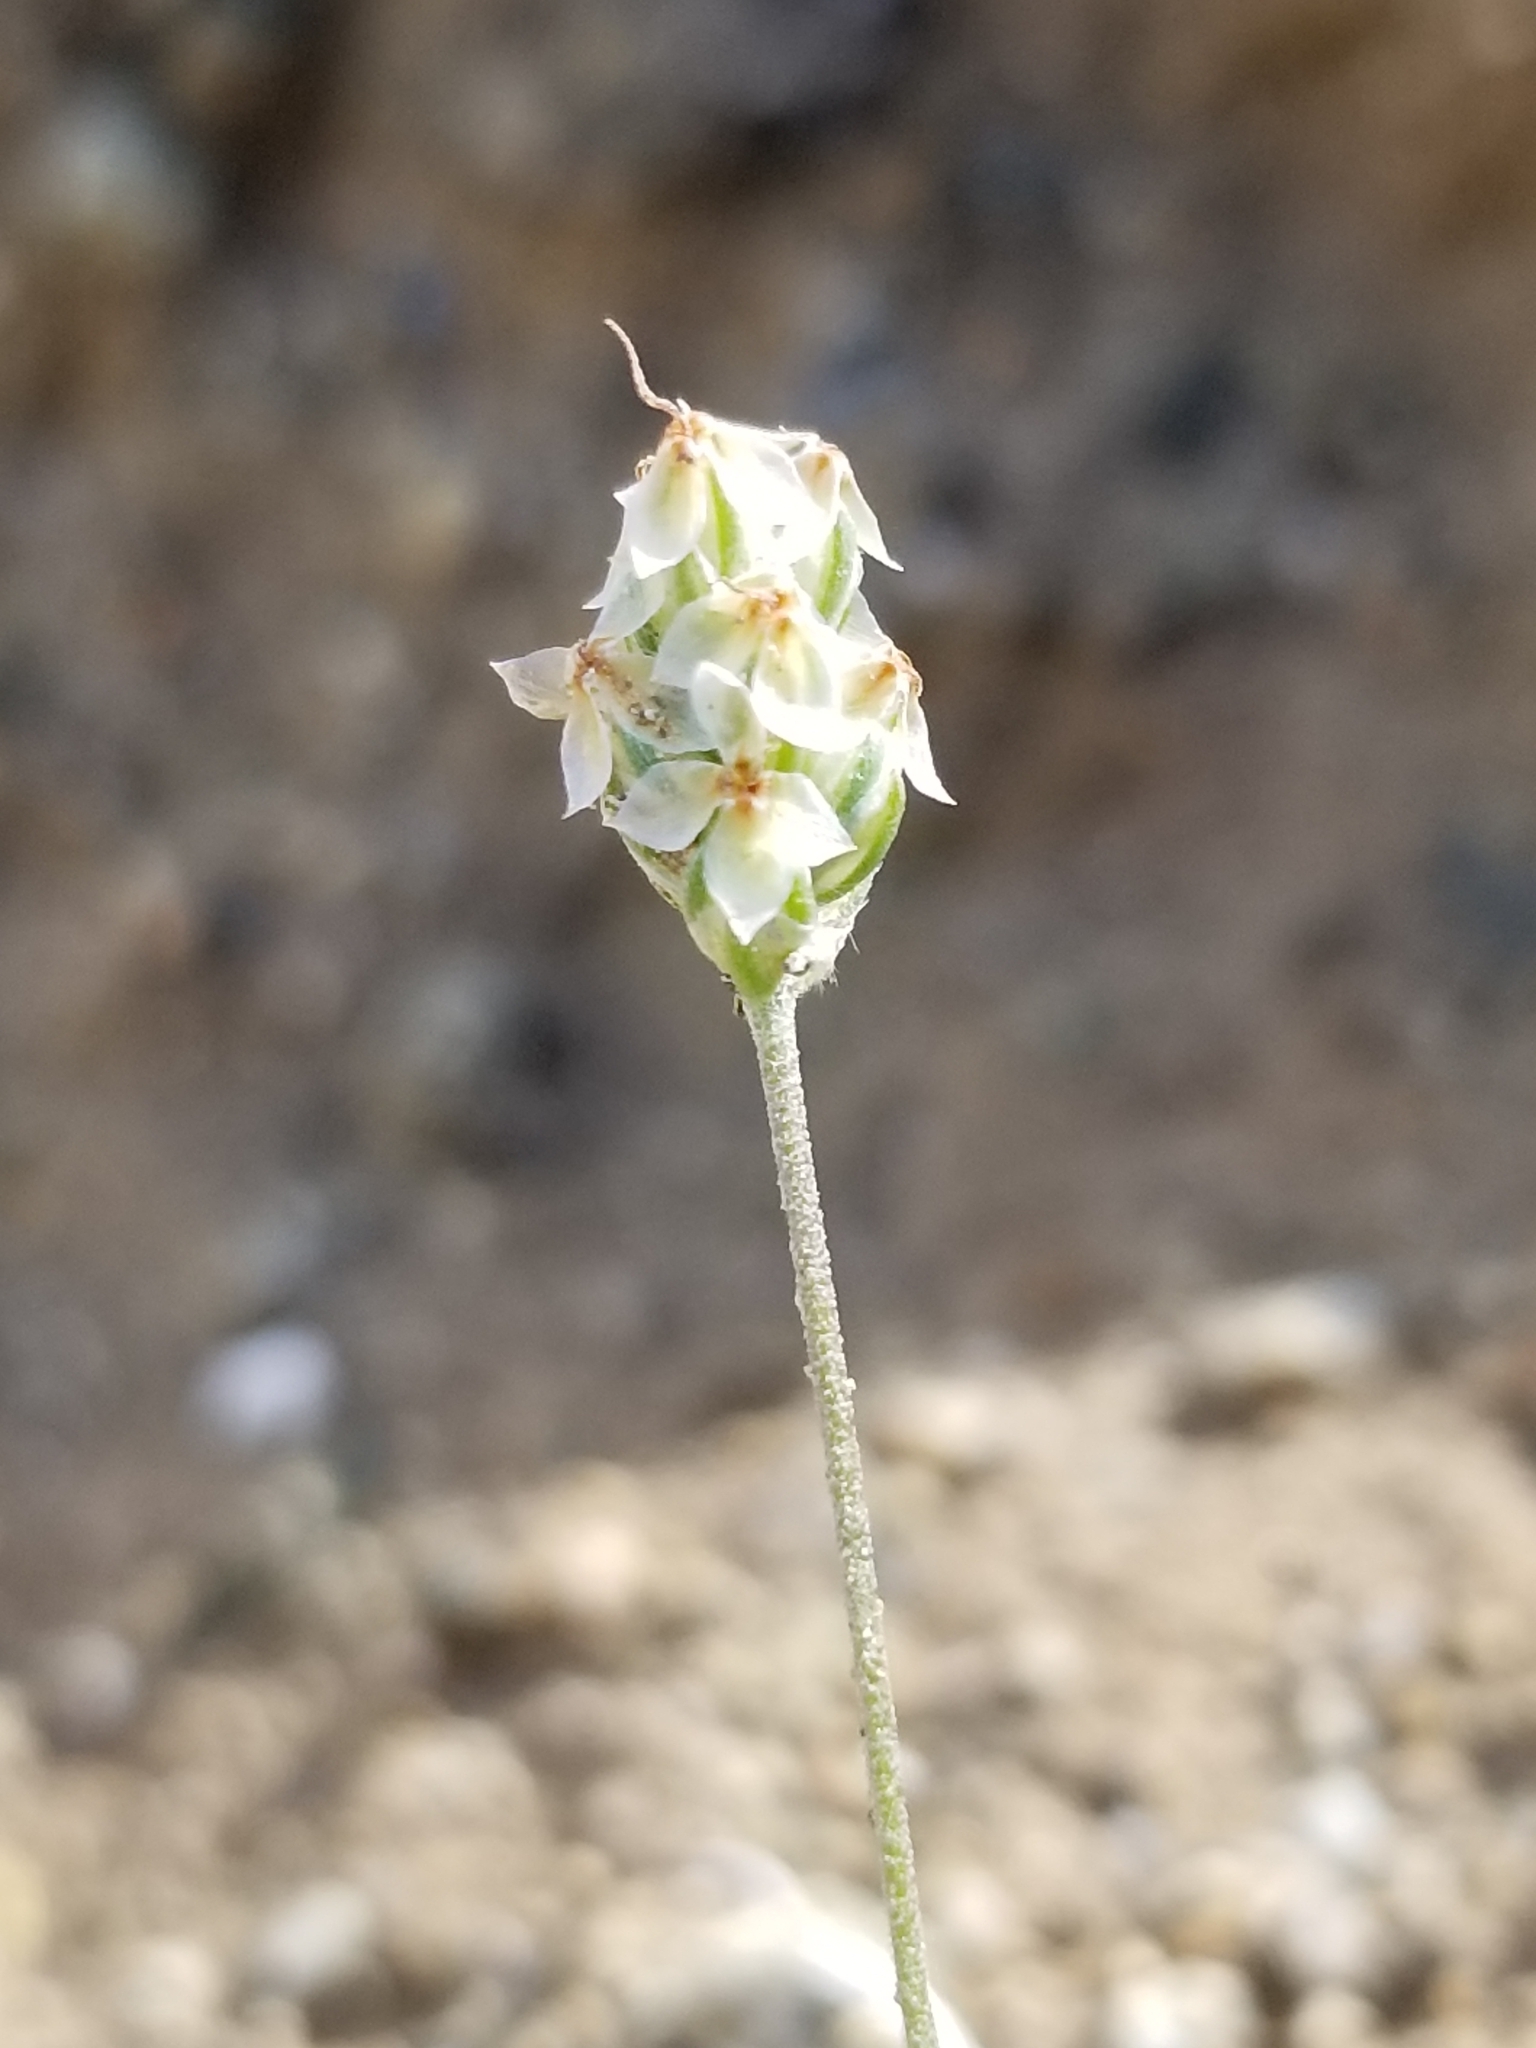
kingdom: Plantae
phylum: Tracheophyta
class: Magnoliopsida
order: Lamiales
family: Plantaginaceae
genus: Plantago
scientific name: Plantago ovata
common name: Blond plantain
